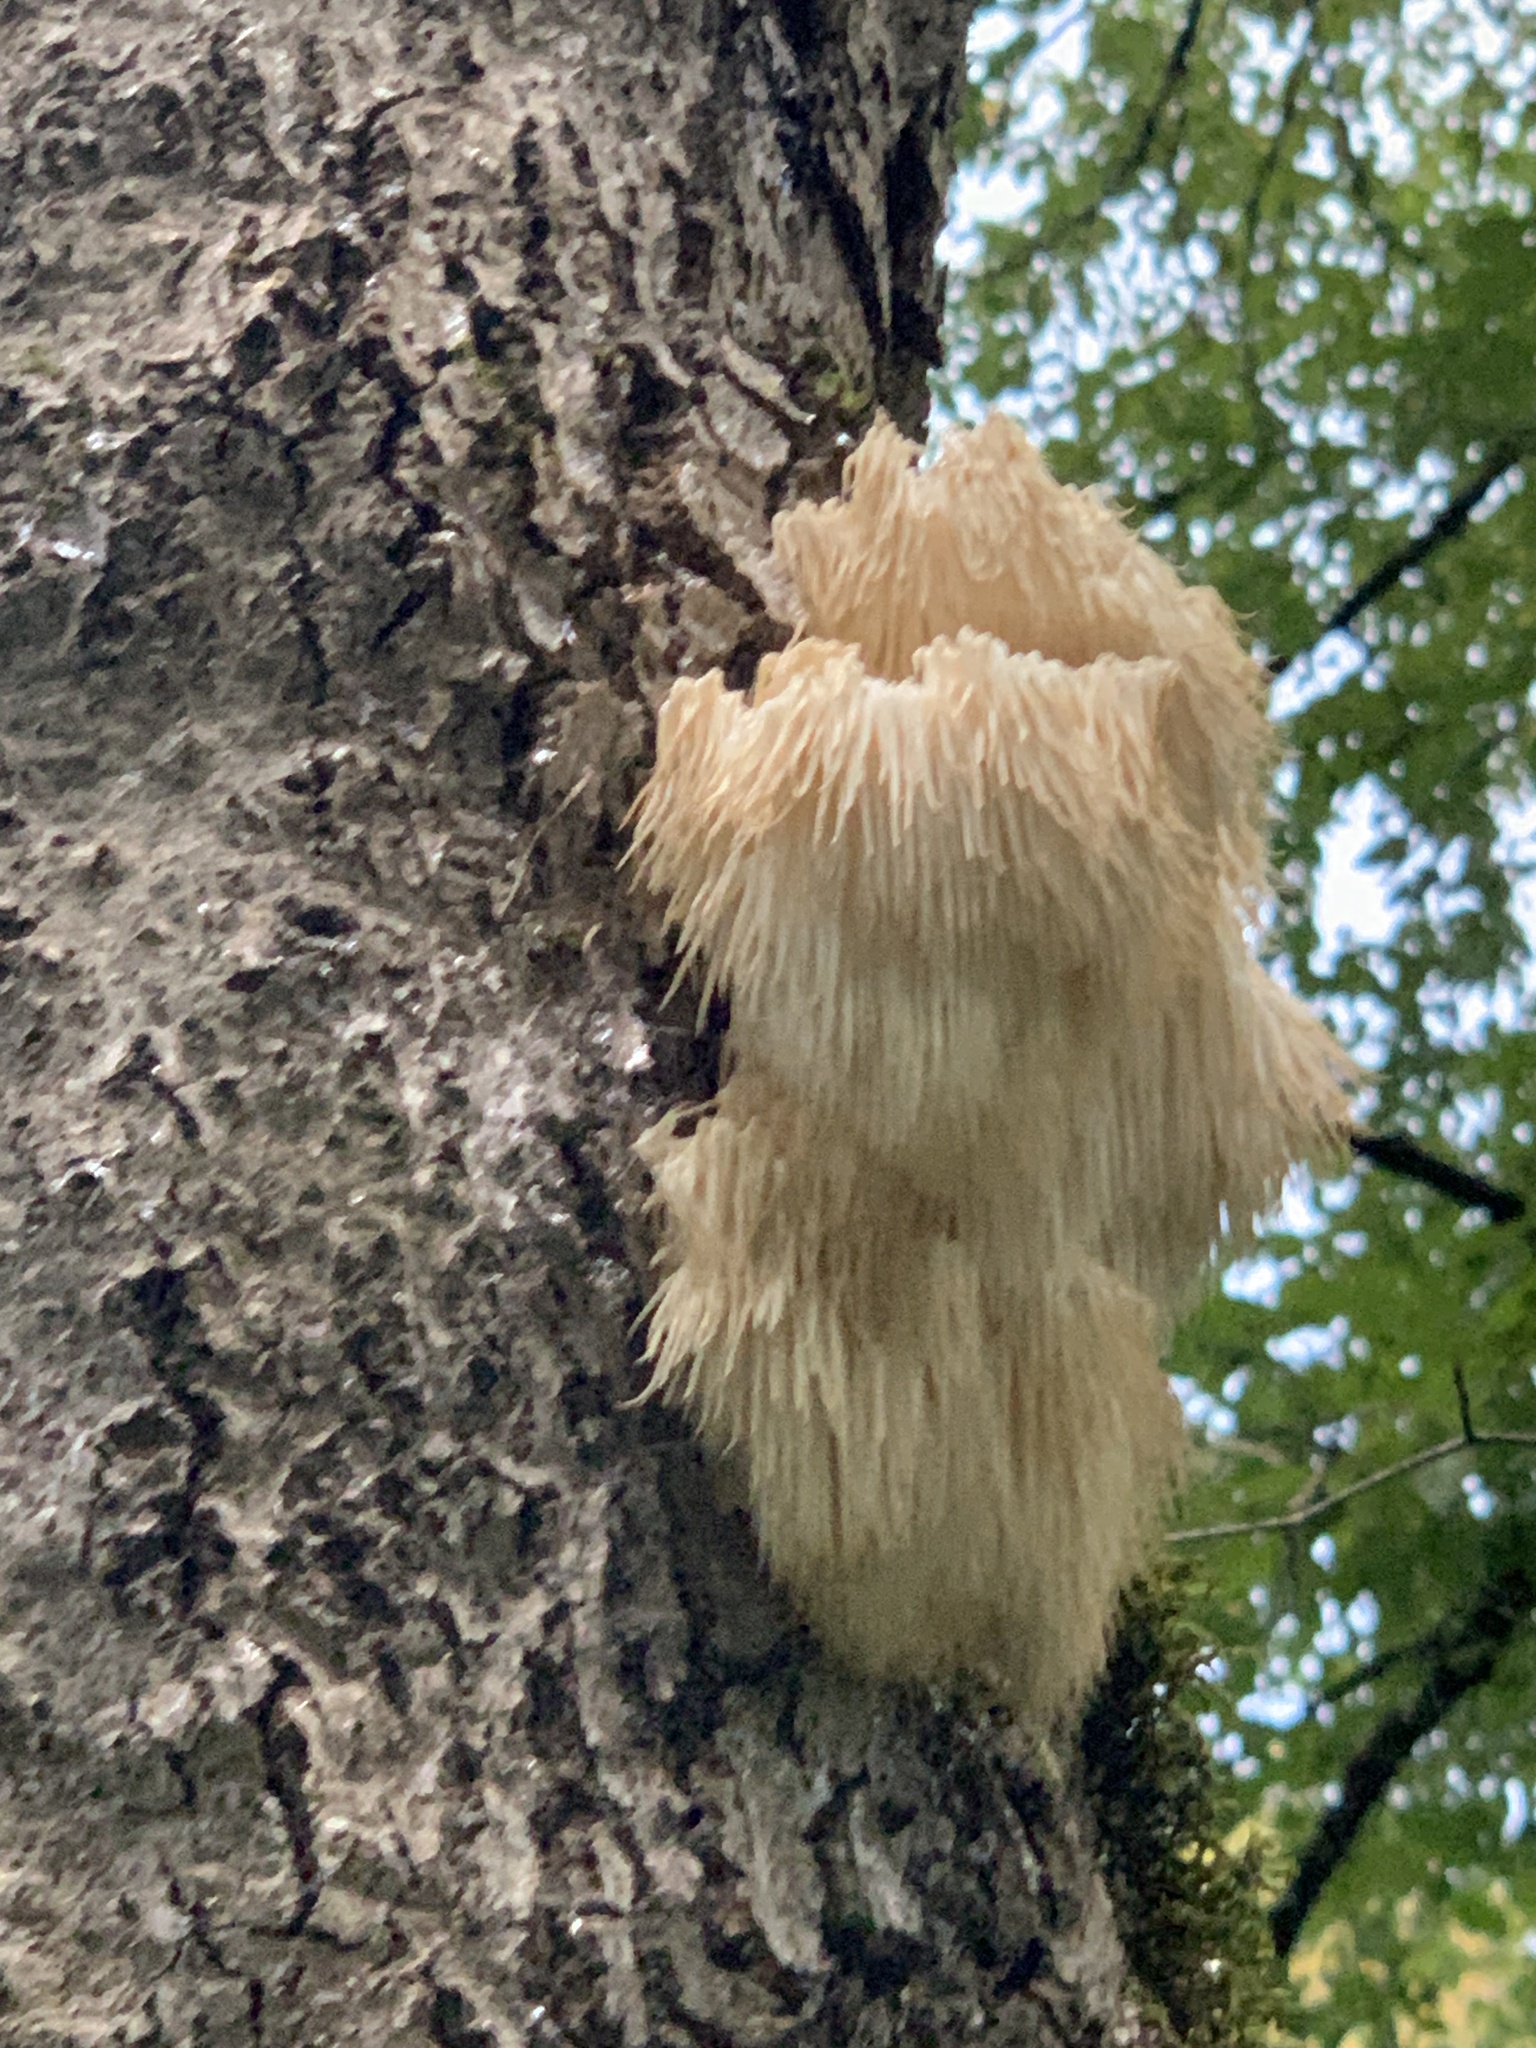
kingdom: Fungi
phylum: Basidiomycota
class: Agaricomycetes
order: Russulales
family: Hericiaceae
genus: Hericium
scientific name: Hericium americanum
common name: Bear's head tooth
